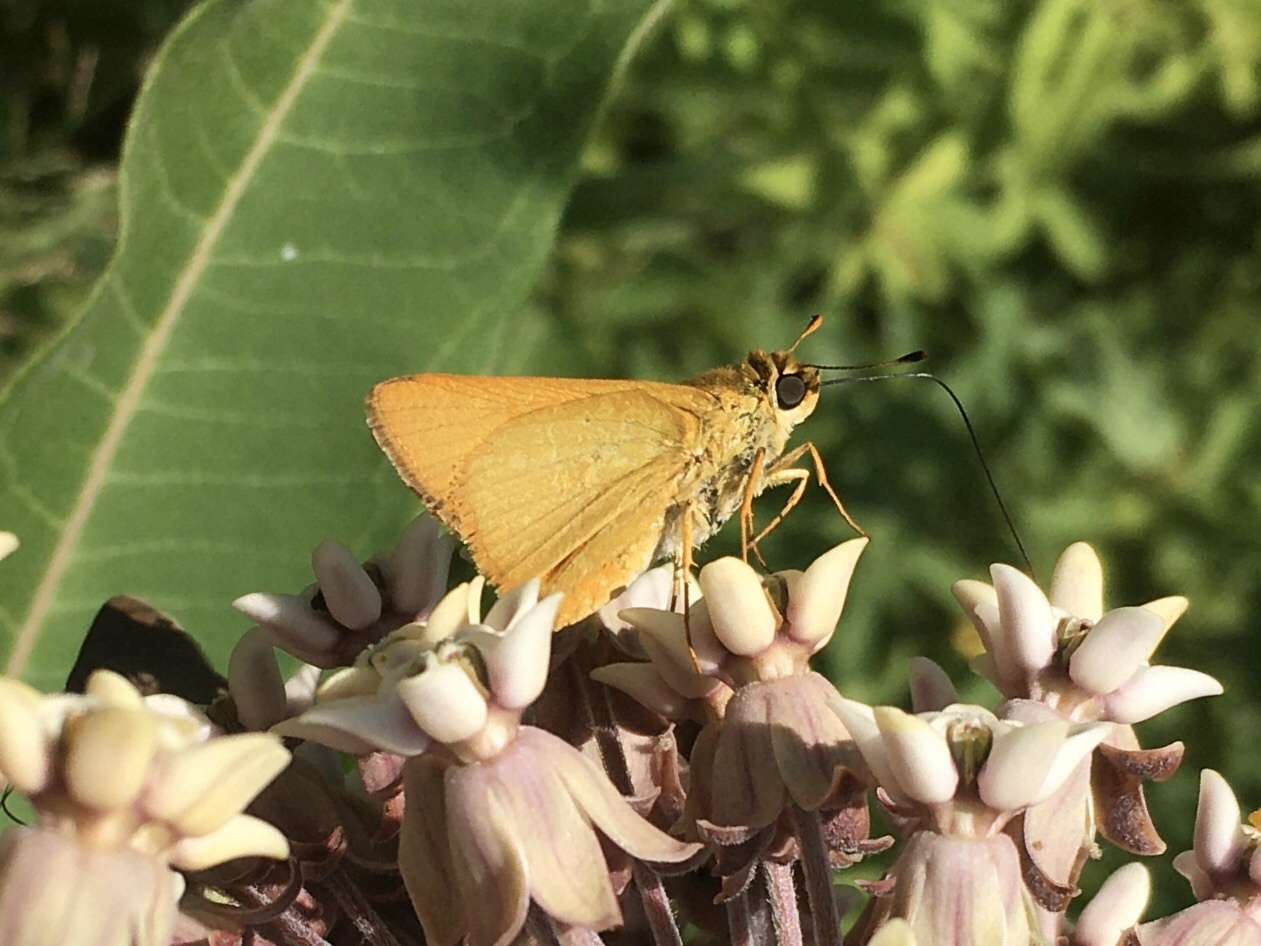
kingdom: Animalia
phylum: Arthropoda
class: Insecta
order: Lepidoptera
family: Hesperiidae
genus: Atrytone
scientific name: Atrytone delaware
